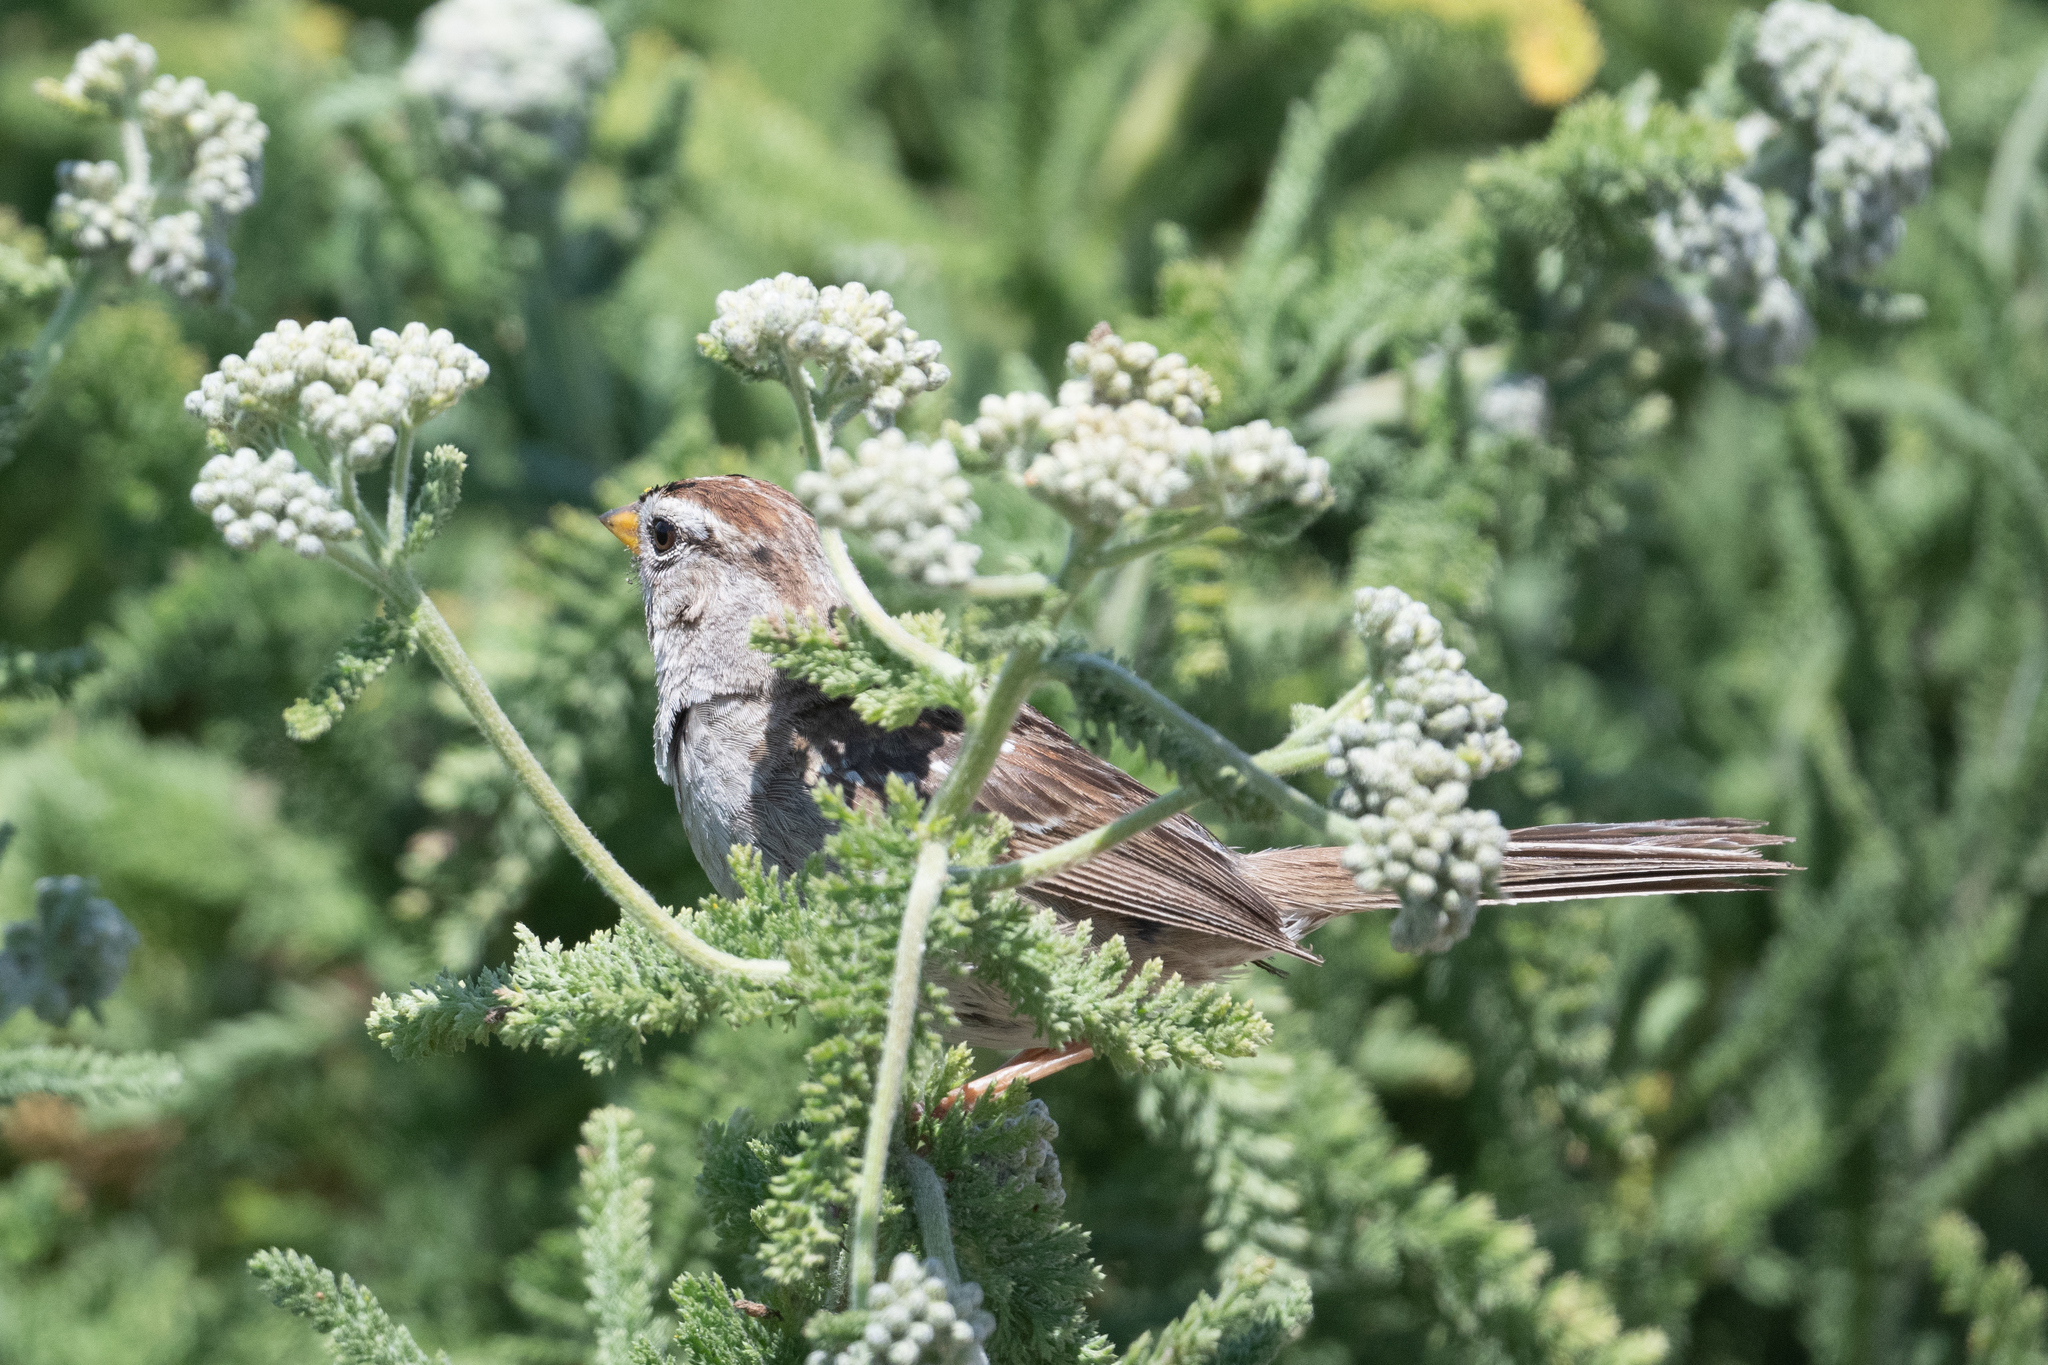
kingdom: Animalia
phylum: Chordata
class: Aves
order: Passeriformes
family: Passerellidae
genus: Zonotrichia
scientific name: Zonotrichia leucophrys
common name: White-crowned sparrow
